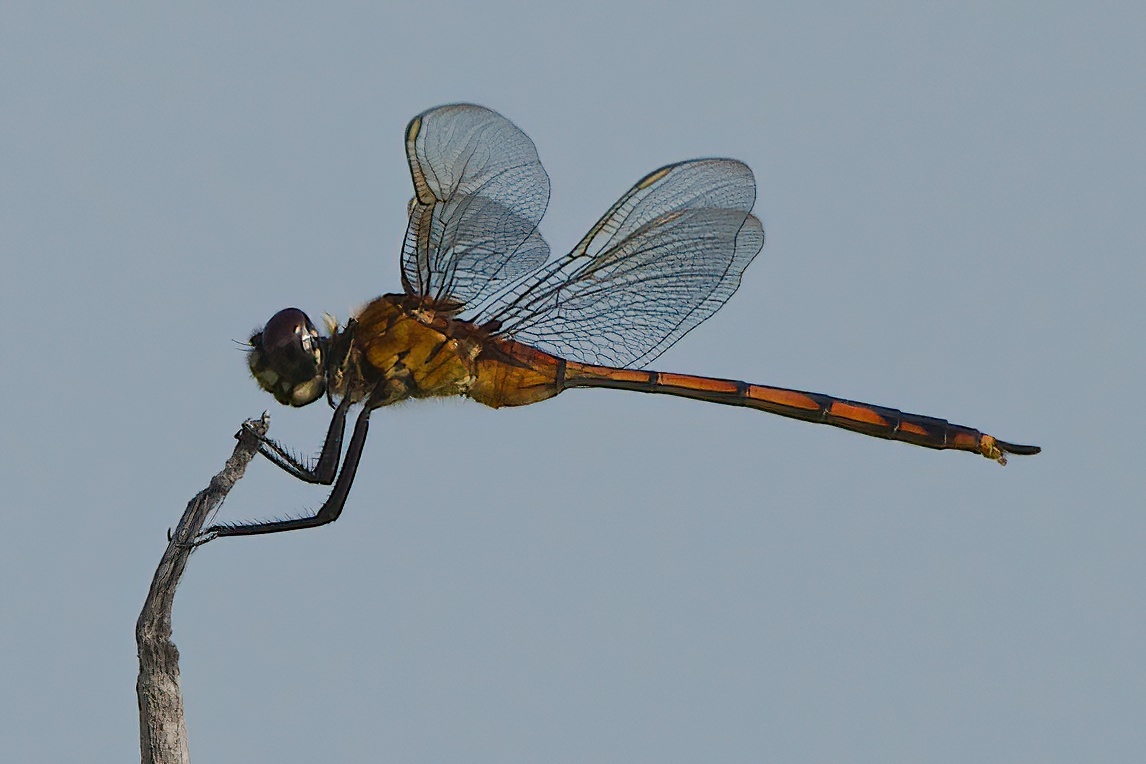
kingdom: Animalia
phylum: Arthropoda
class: Insecta
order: Odonata
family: Libellulidae
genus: Brachymesia
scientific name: Brachymesia gravida
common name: Four-spotted pennant
